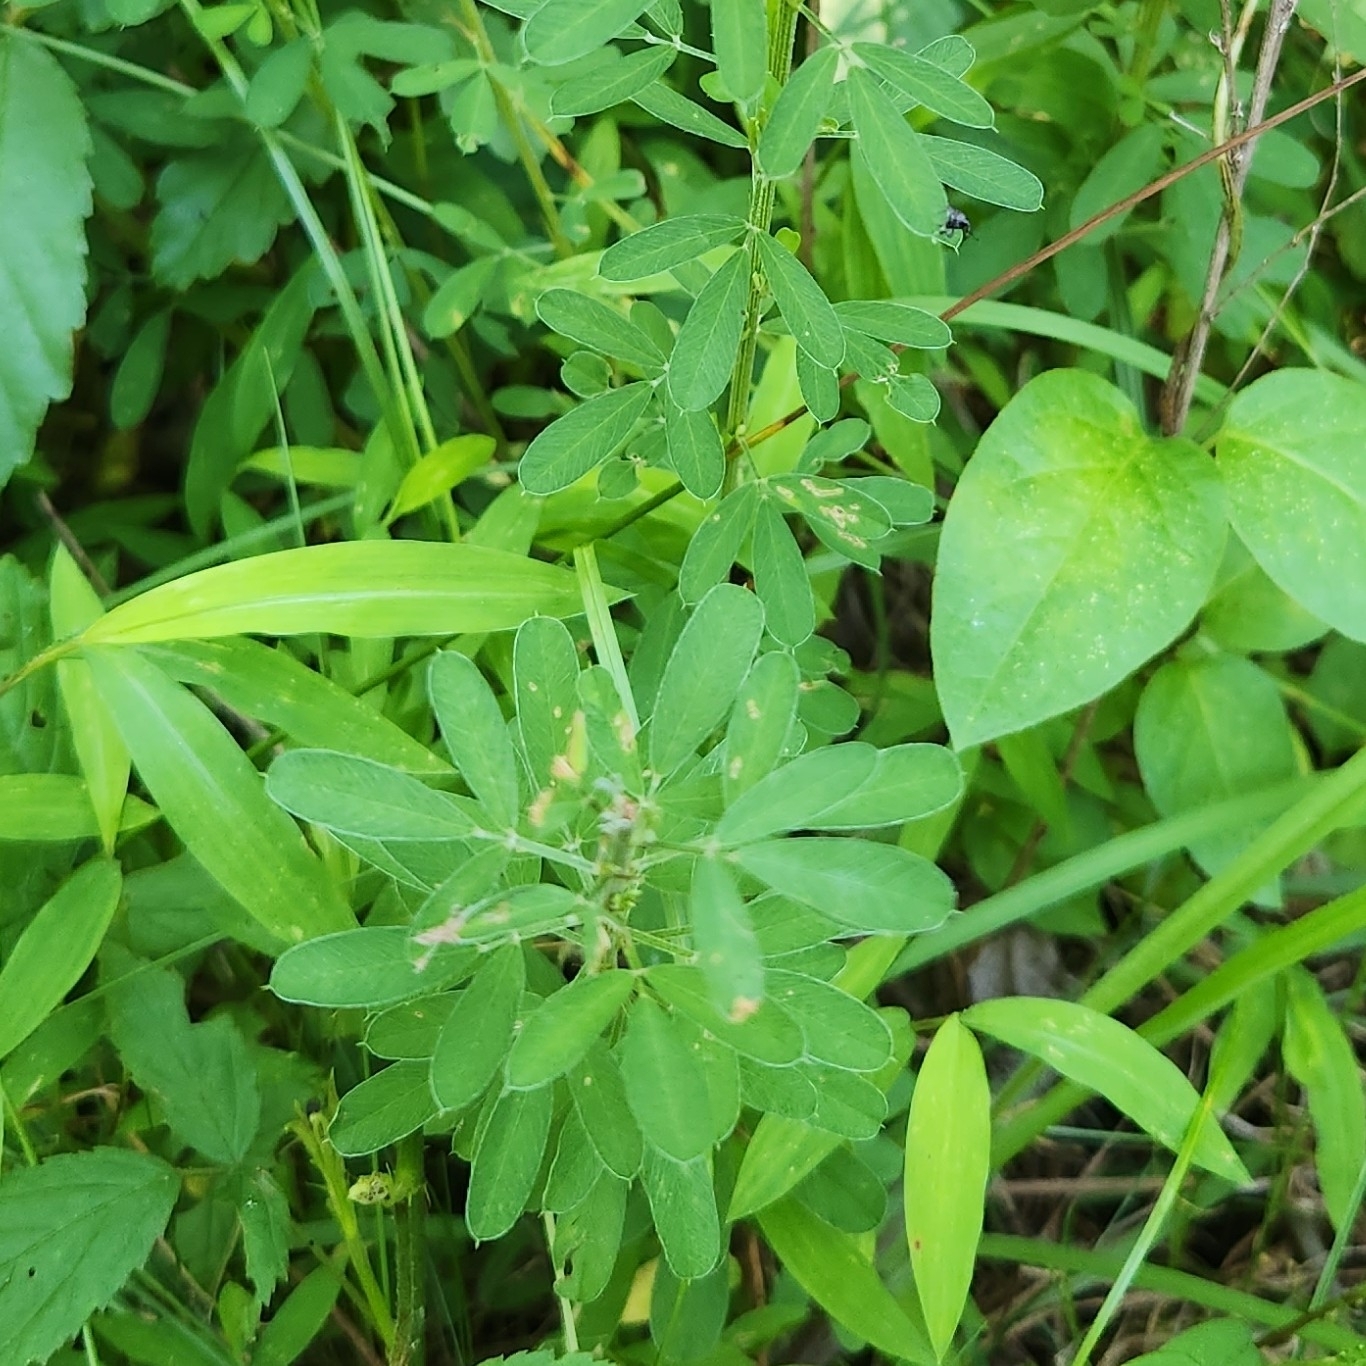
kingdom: Plantae
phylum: Tracheophyta
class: Magnoliopsida
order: Fabales
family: Fabaceae
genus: Lespedeza
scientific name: Lespedeza cuneata
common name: Chinese bush-clover
